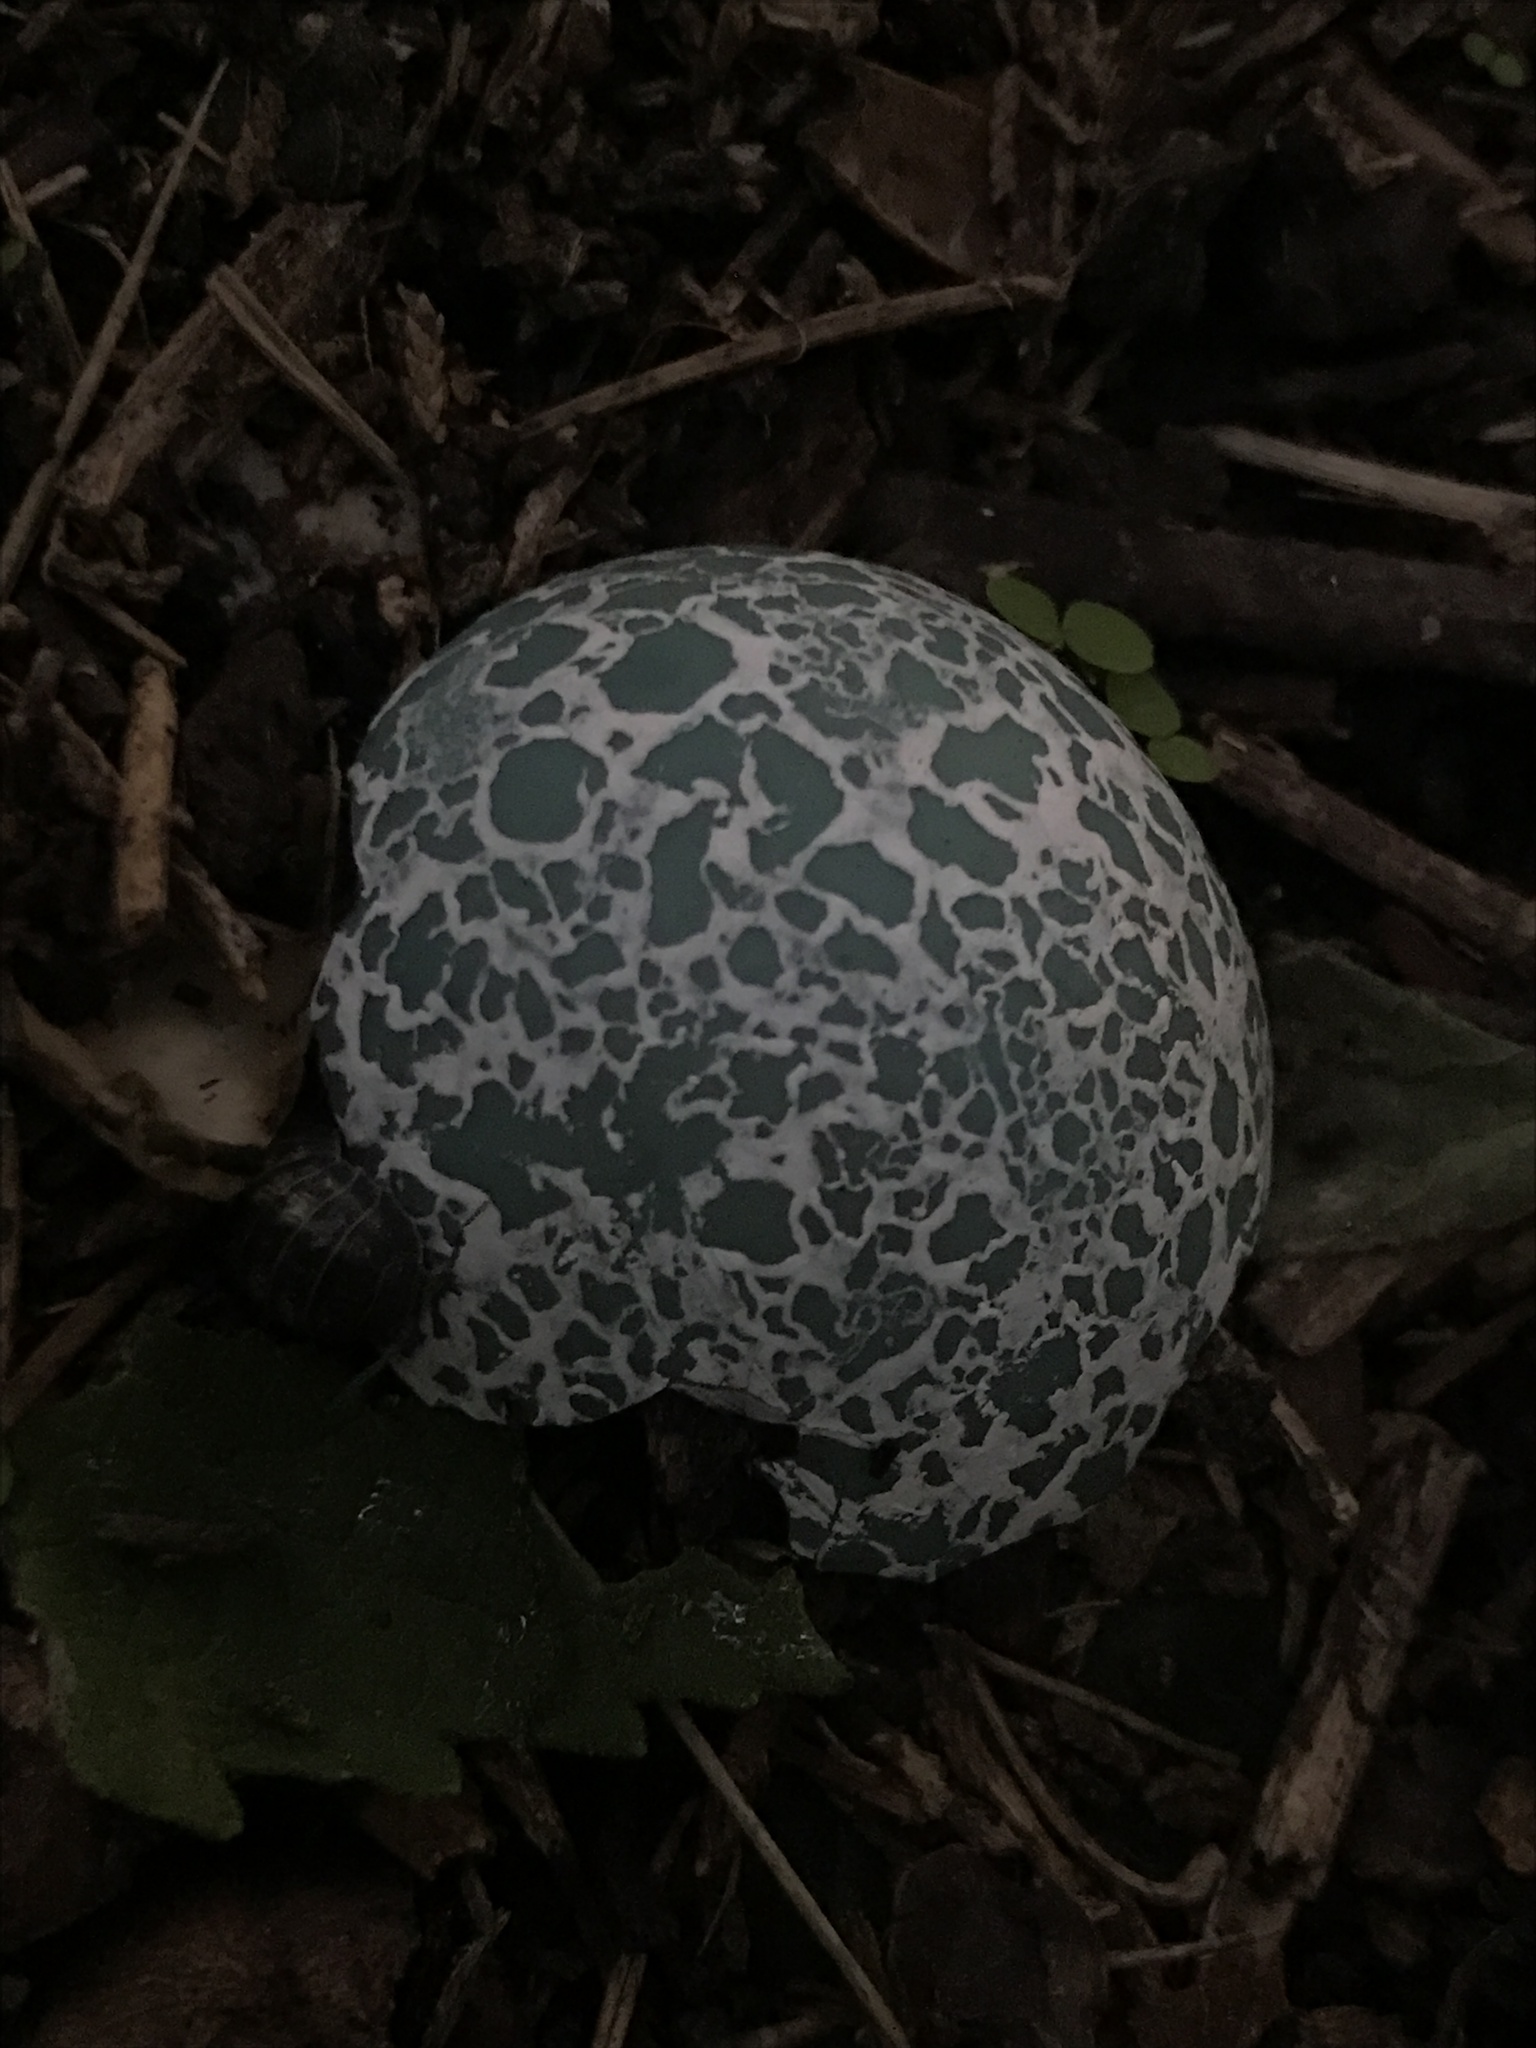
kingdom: Animalia
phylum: Chordata
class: Aves
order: Cuculiformes
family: Cuculidae
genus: Guira
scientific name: Guira guira
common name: Guira cuckoo
